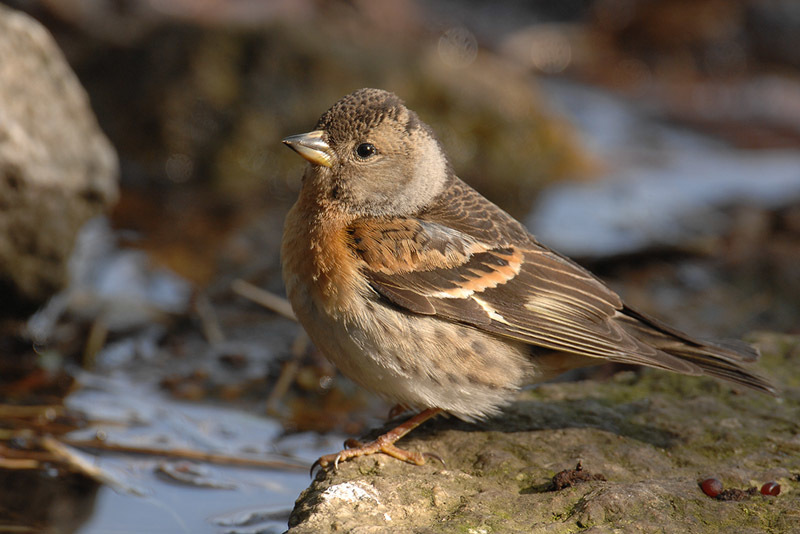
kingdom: Animalia
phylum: Chordata
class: Aves
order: Passeriformes
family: Fringillidae
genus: Fringilla
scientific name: Fringilla montifringilla
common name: Brambling
